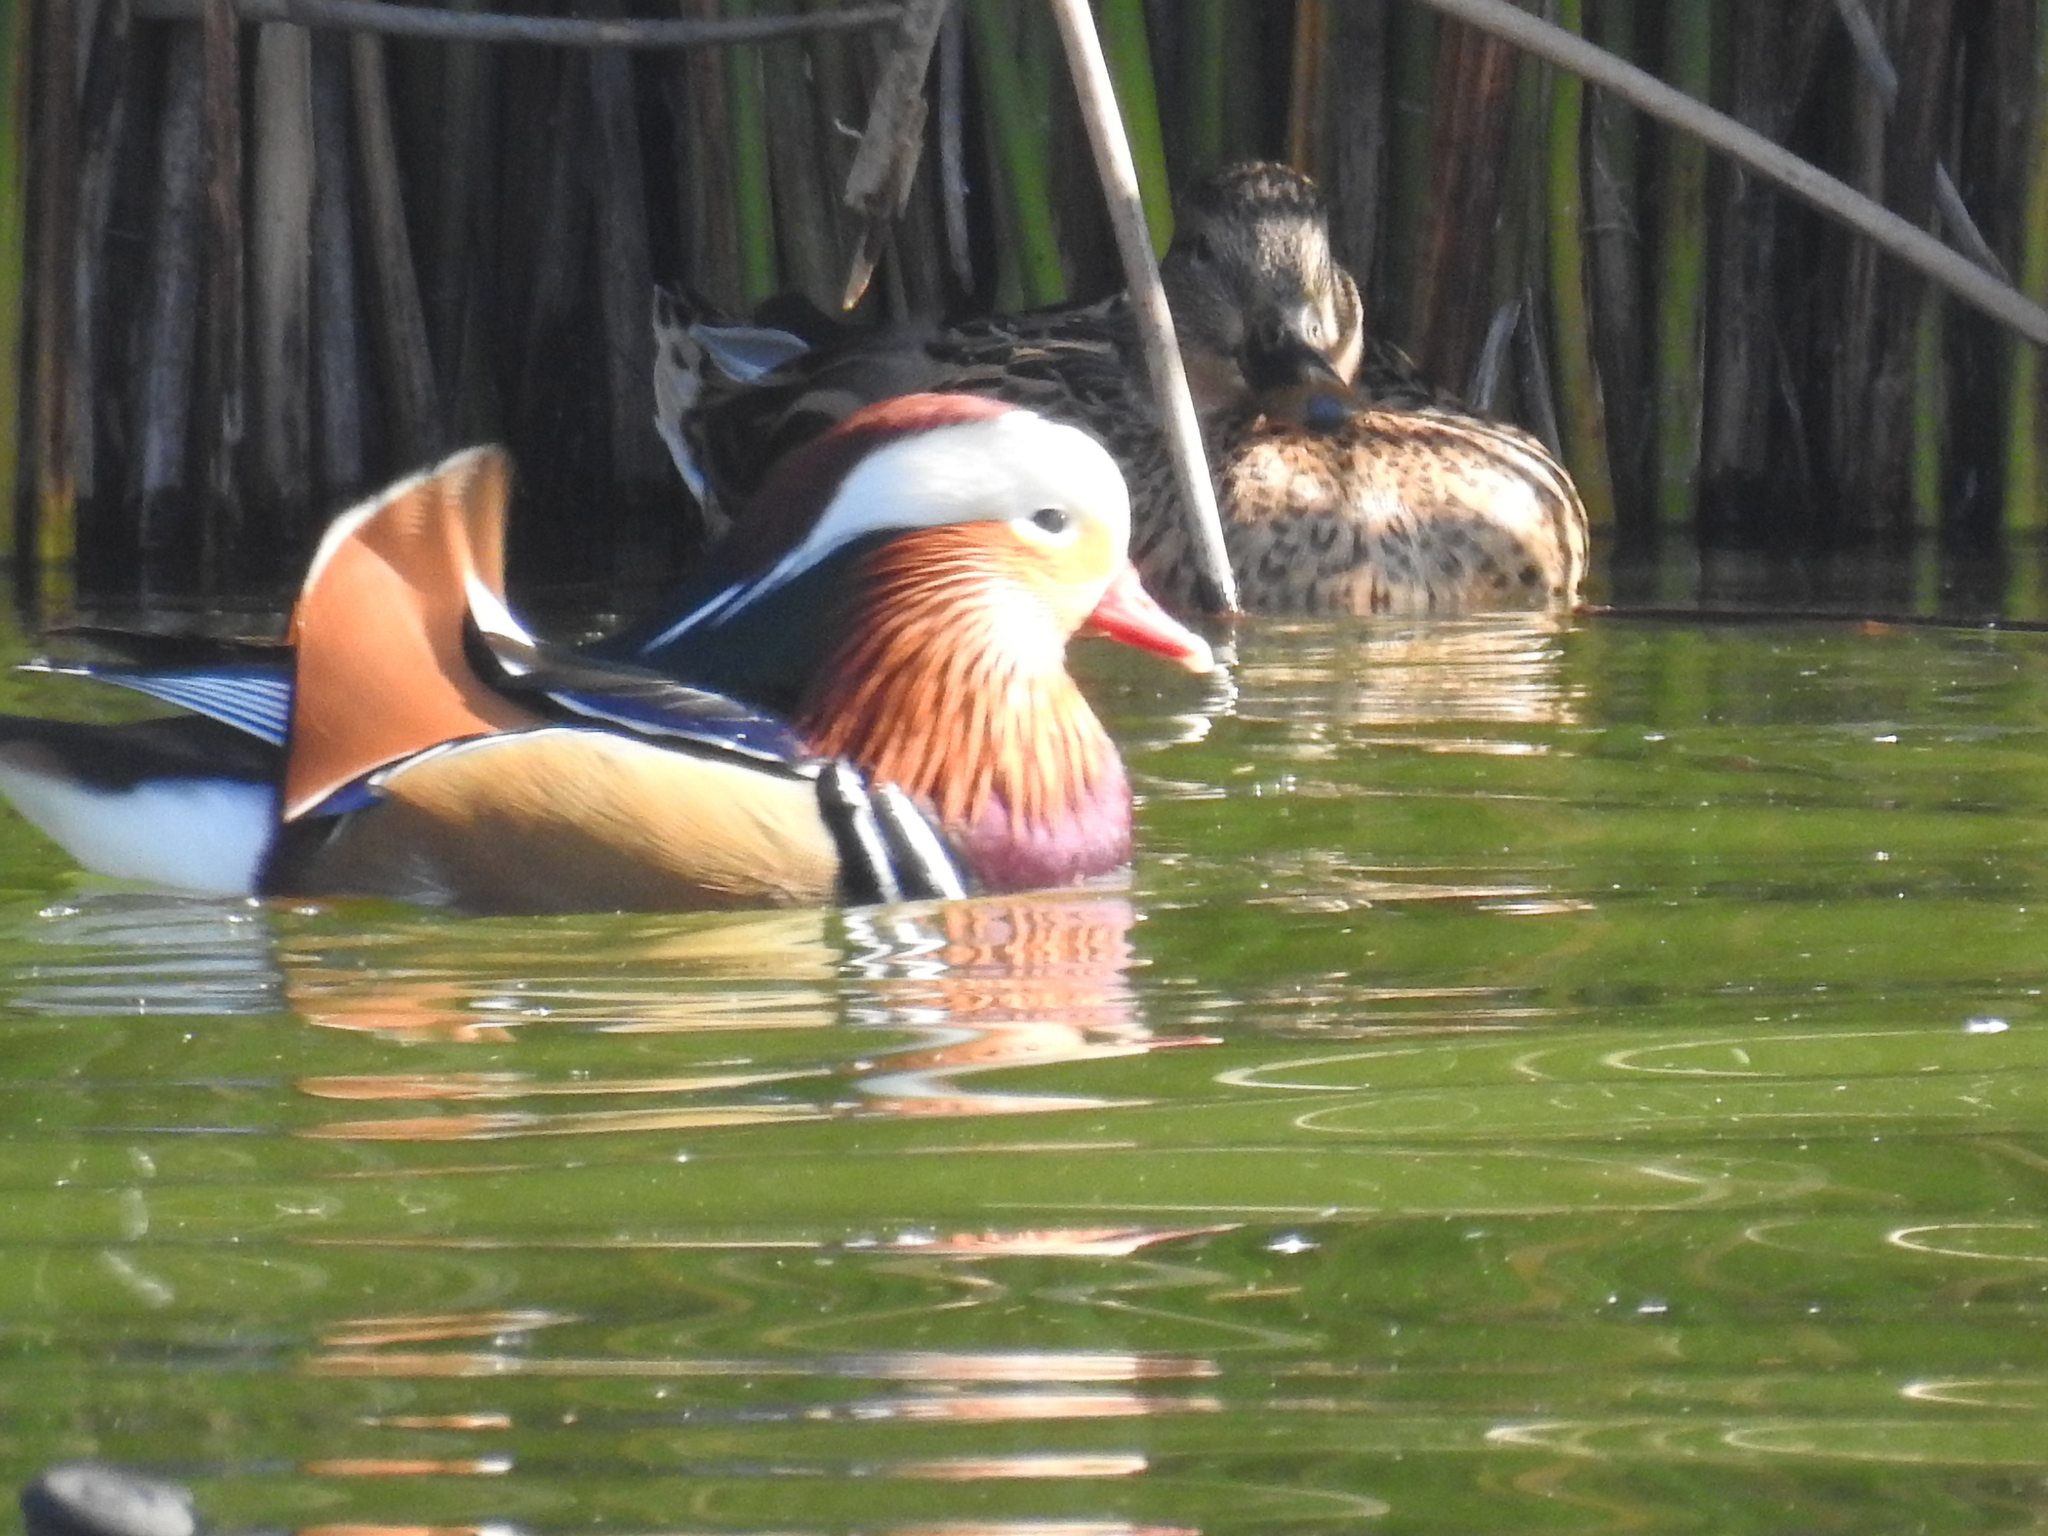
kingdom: Animalia
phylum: Chordata
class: Aves
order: Anseriformes
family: Anatidae
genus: Aix
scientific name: Aix galericulata
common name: Mandarin duck
